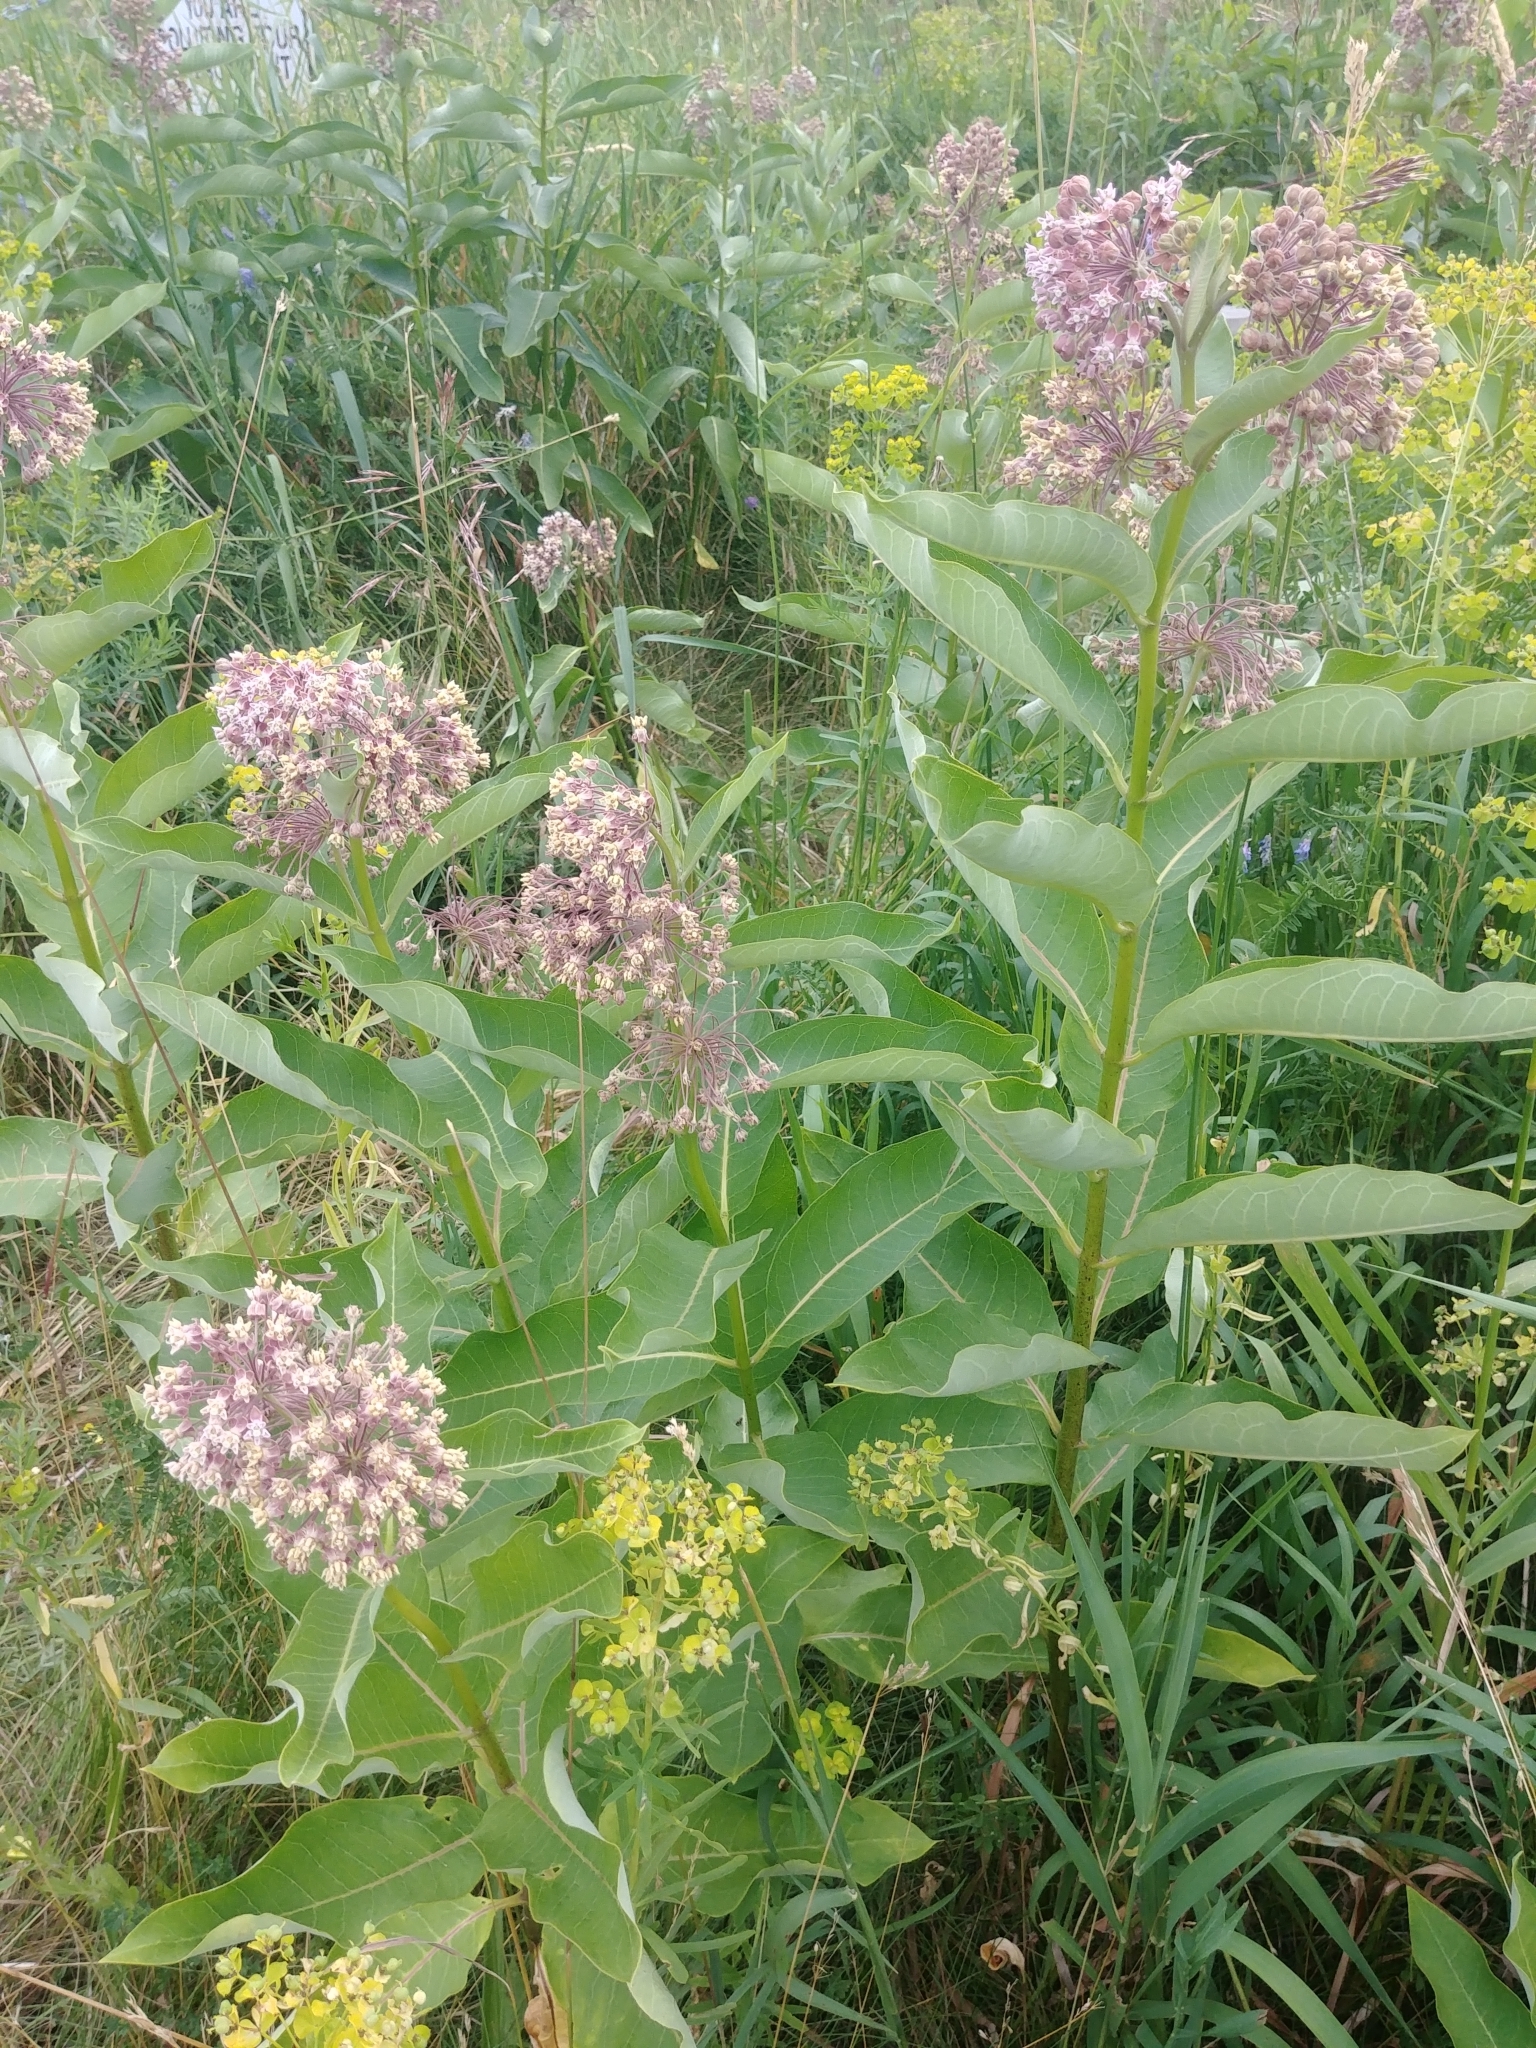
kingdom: Plantae
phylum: Tracheophyta
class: Magnoliopsida
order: Gentianales
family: Apocynaceae
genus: Asclepias
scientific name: Asclepias syriaca
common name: Common milkweed
